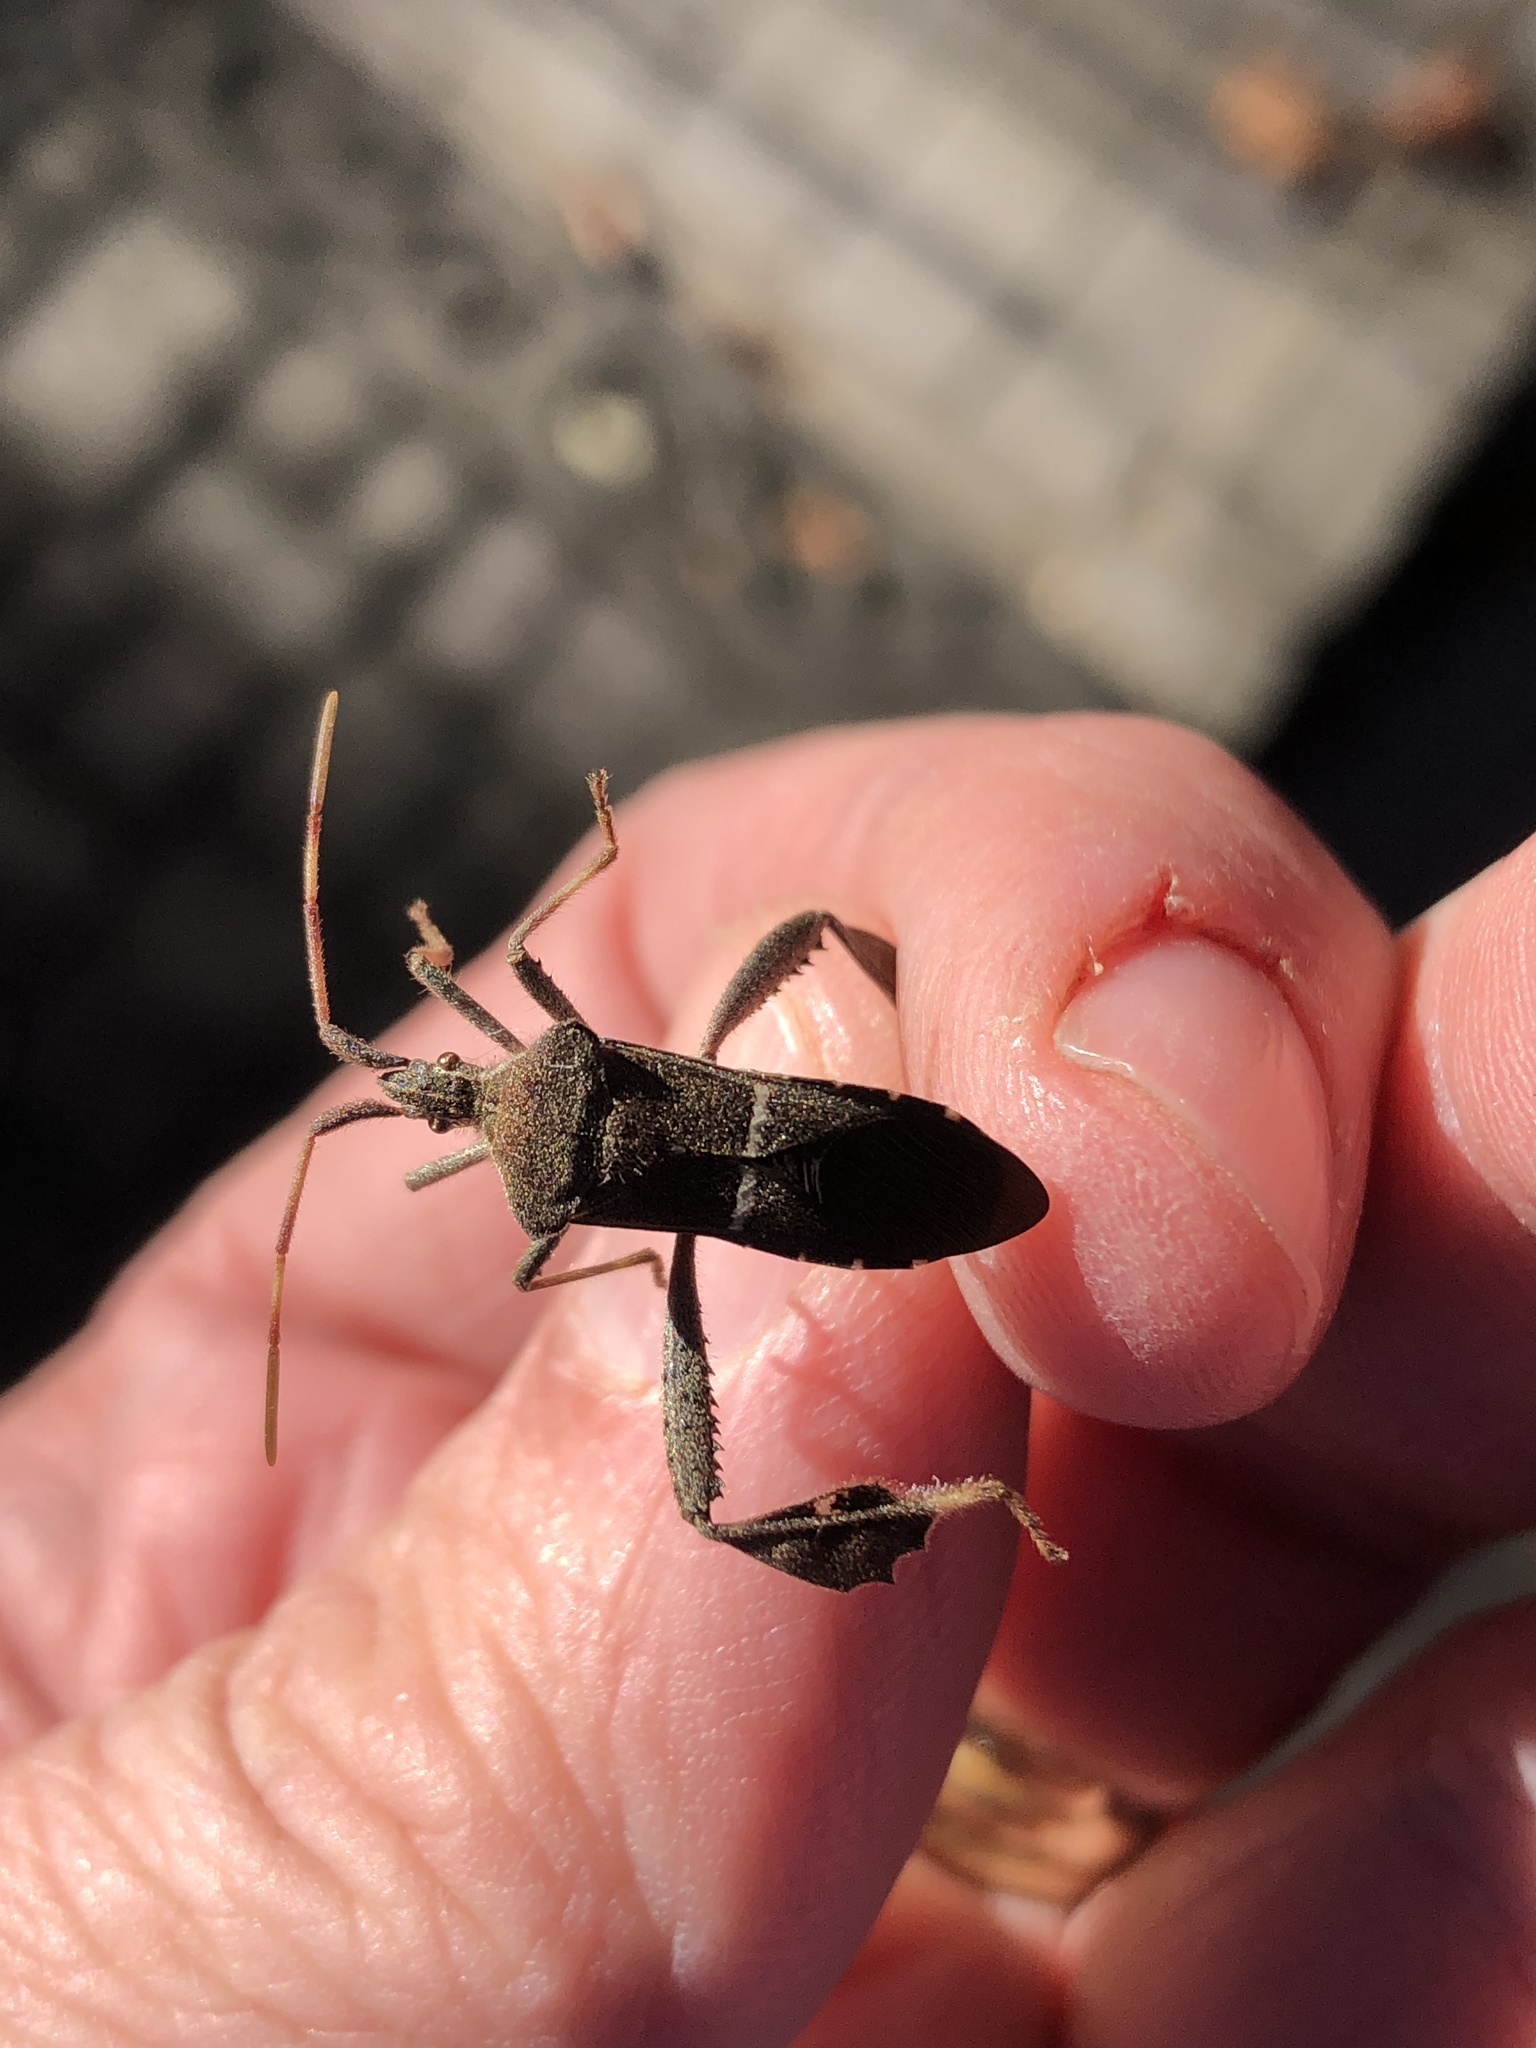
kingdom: Animalia
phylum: Arthropoda
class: Insecta
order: Hemiptera
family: Coreidae
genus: Leptoglossus
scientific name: Leptoglossus phyllopus
